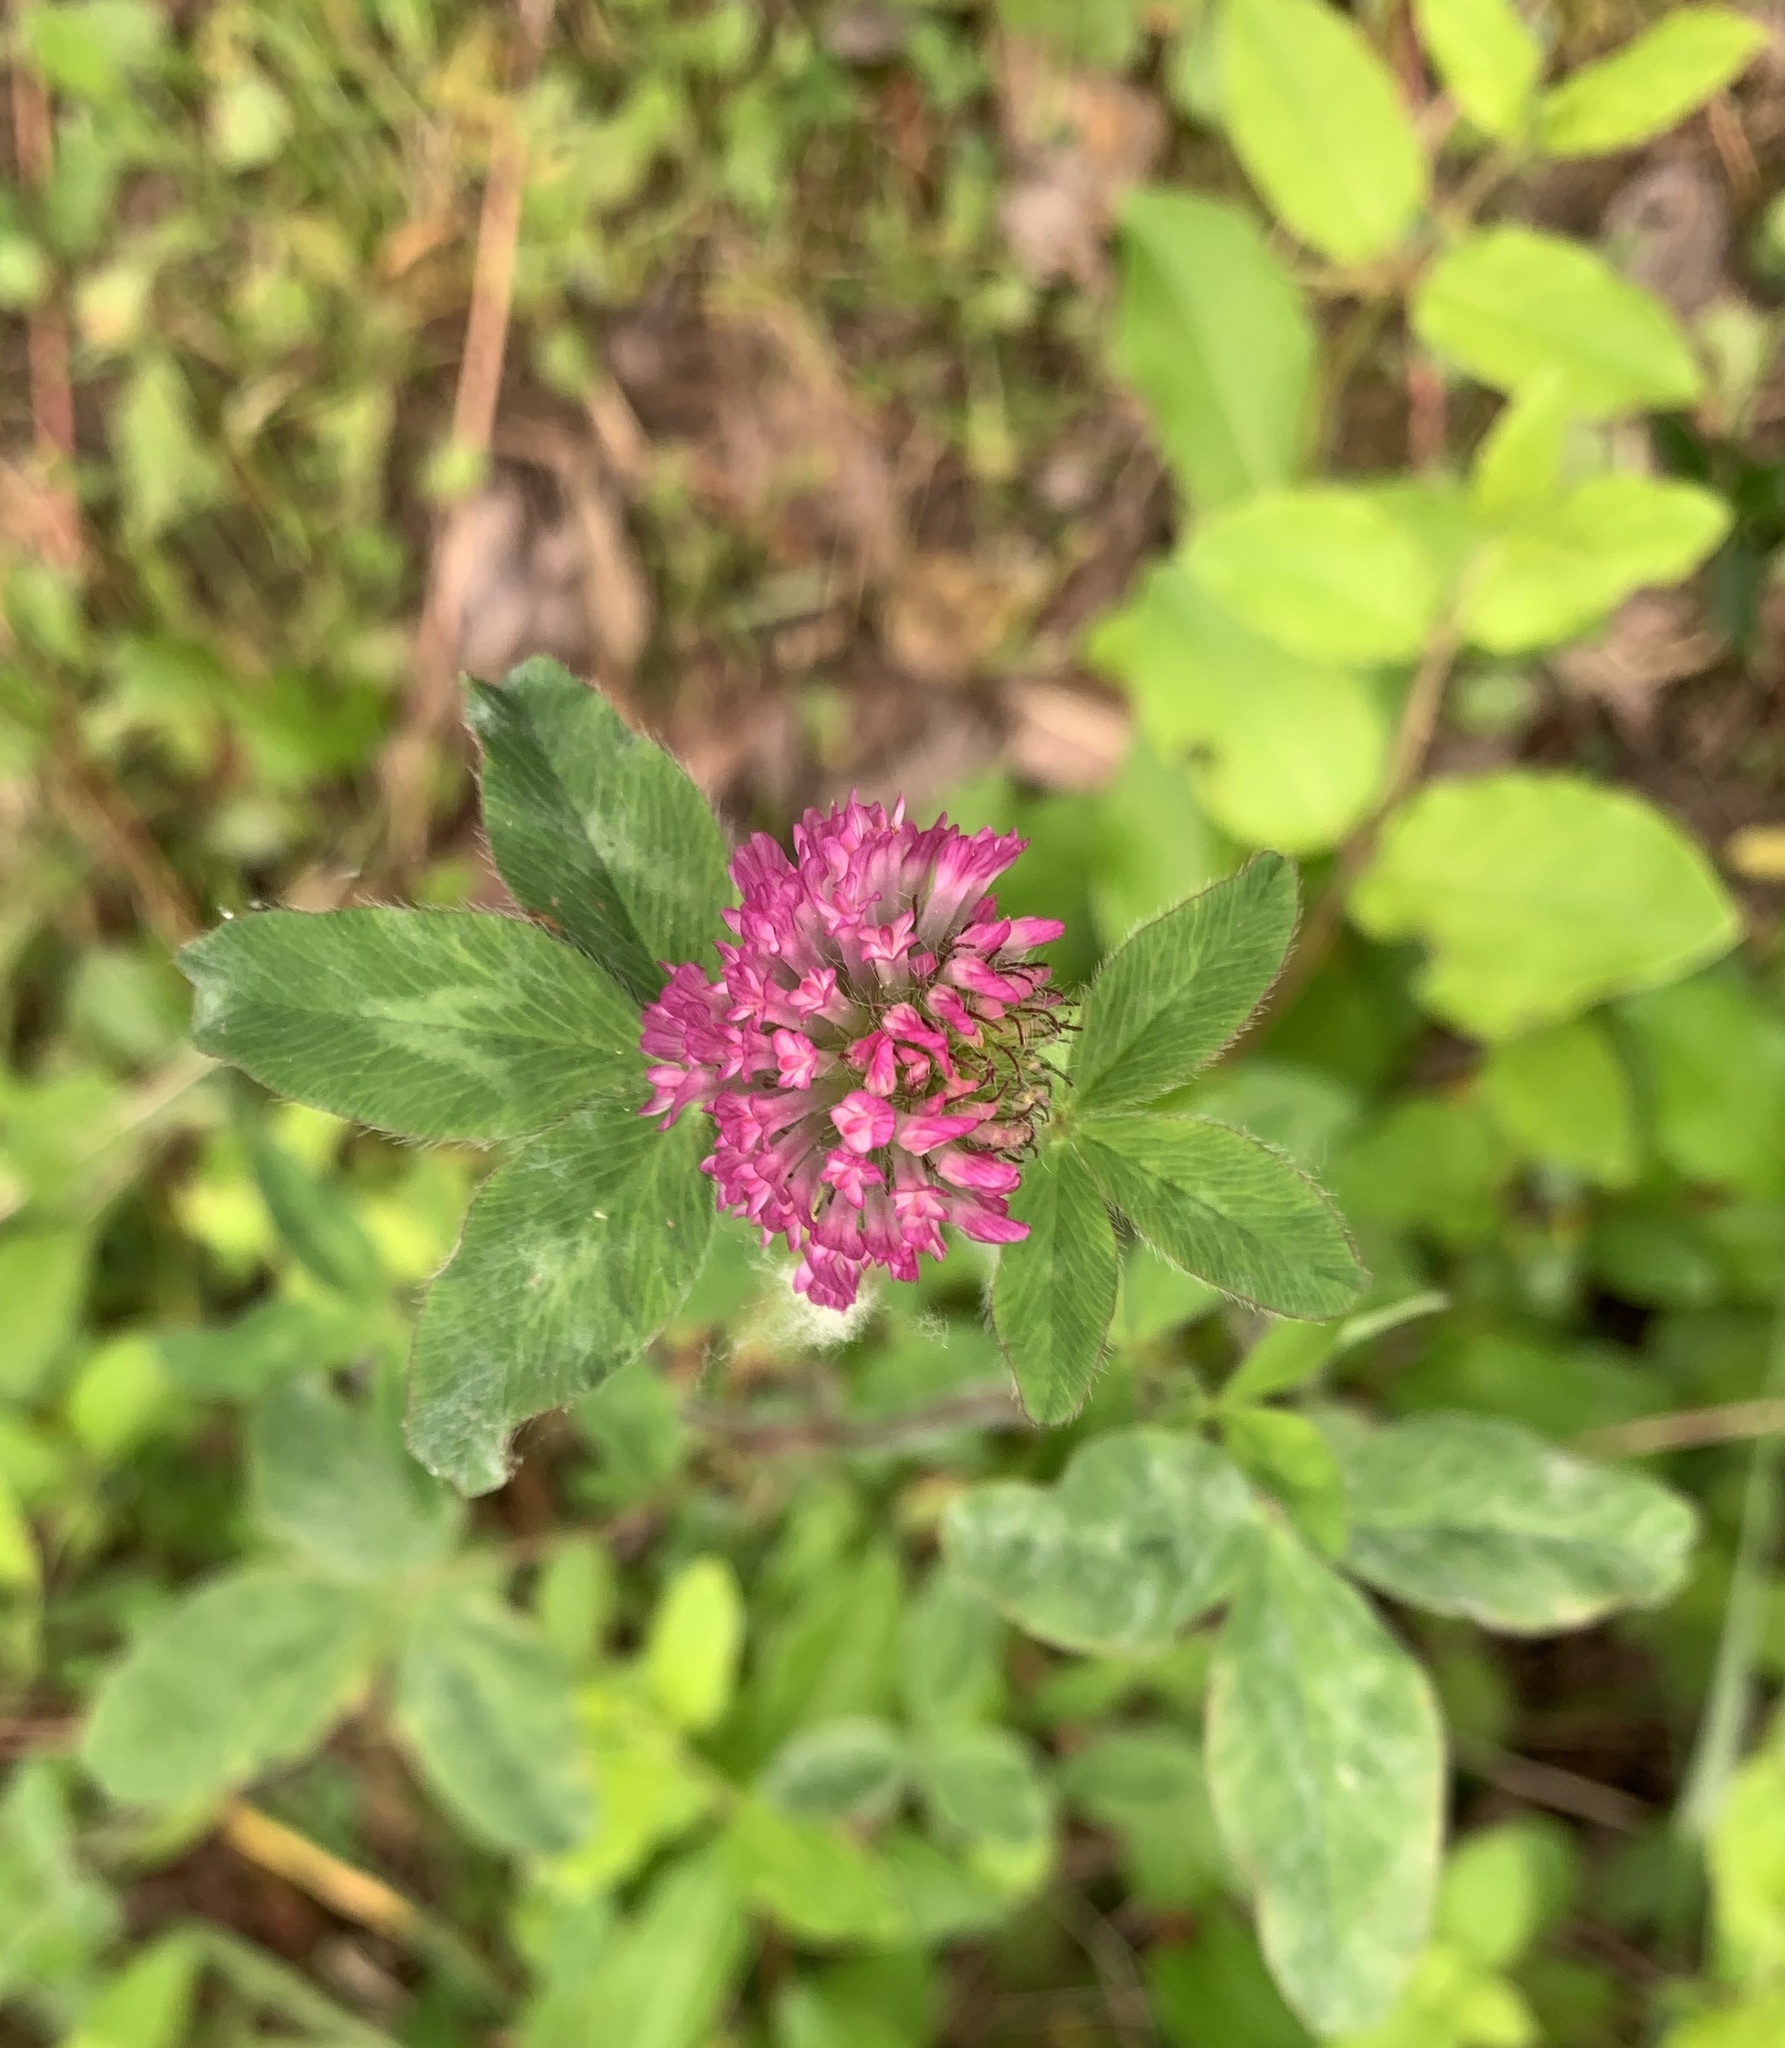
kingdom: Plantae
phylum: Tracheophyta
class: Magnoliopsida
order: Fabales
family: Fabaceae
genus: Trifolium
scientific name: Trifolium pratense
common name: Red clover
